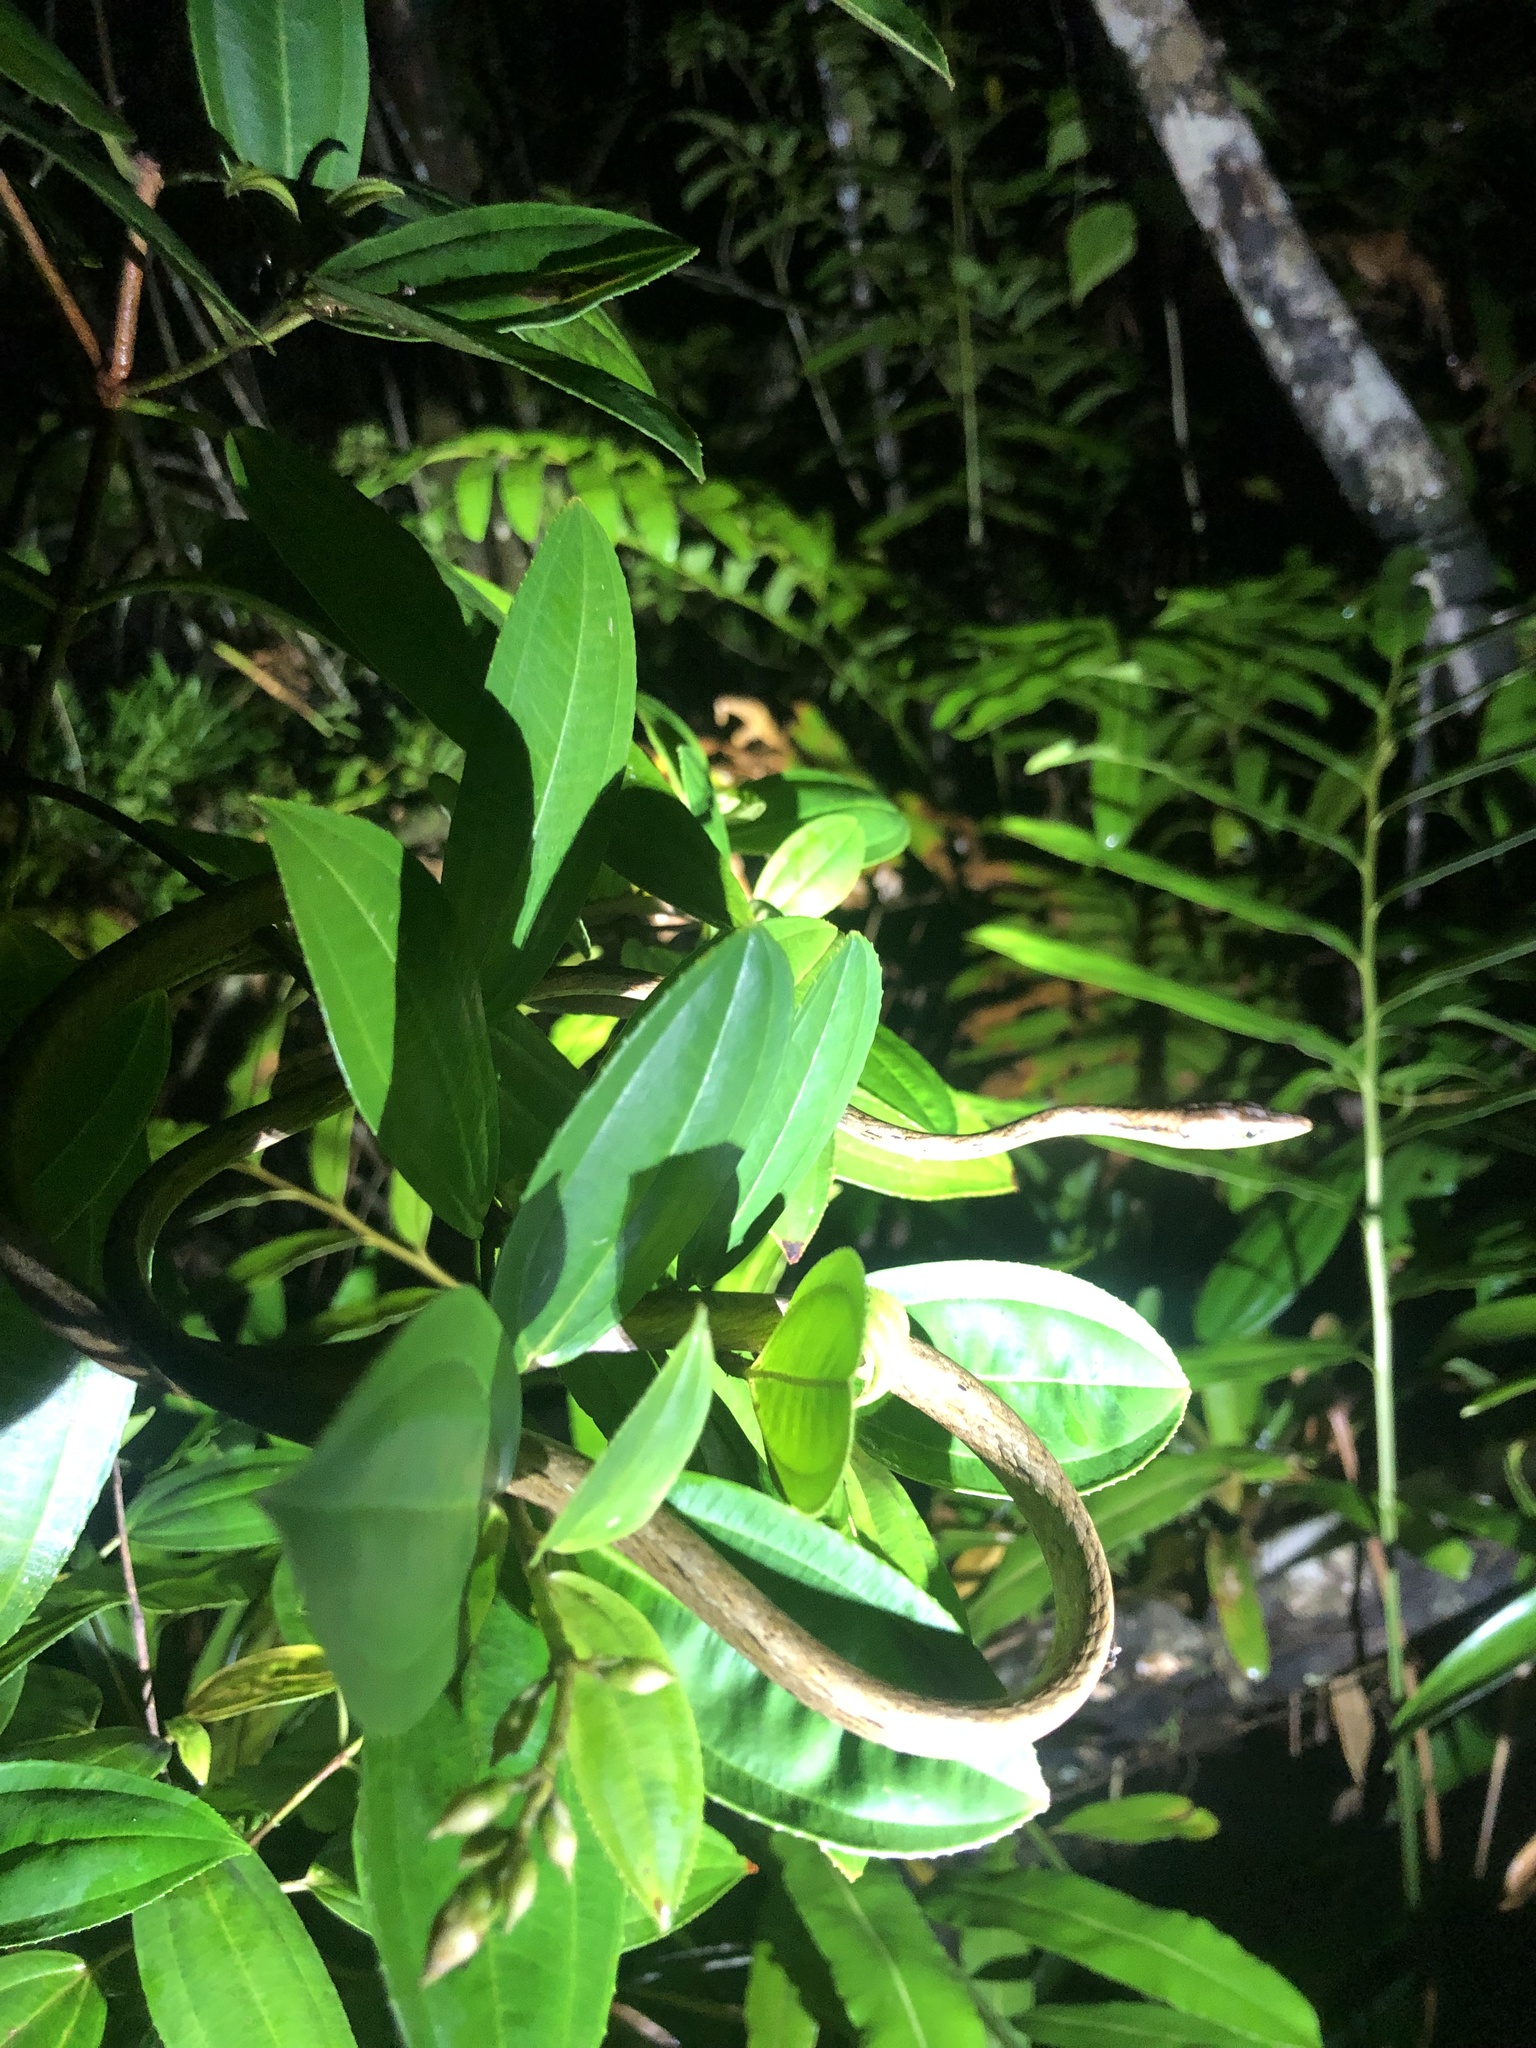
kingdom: Animalia
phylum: Chordata
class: Squamata
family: Colubridae
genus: Oxybelis
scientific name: Oxybelis vittatus
